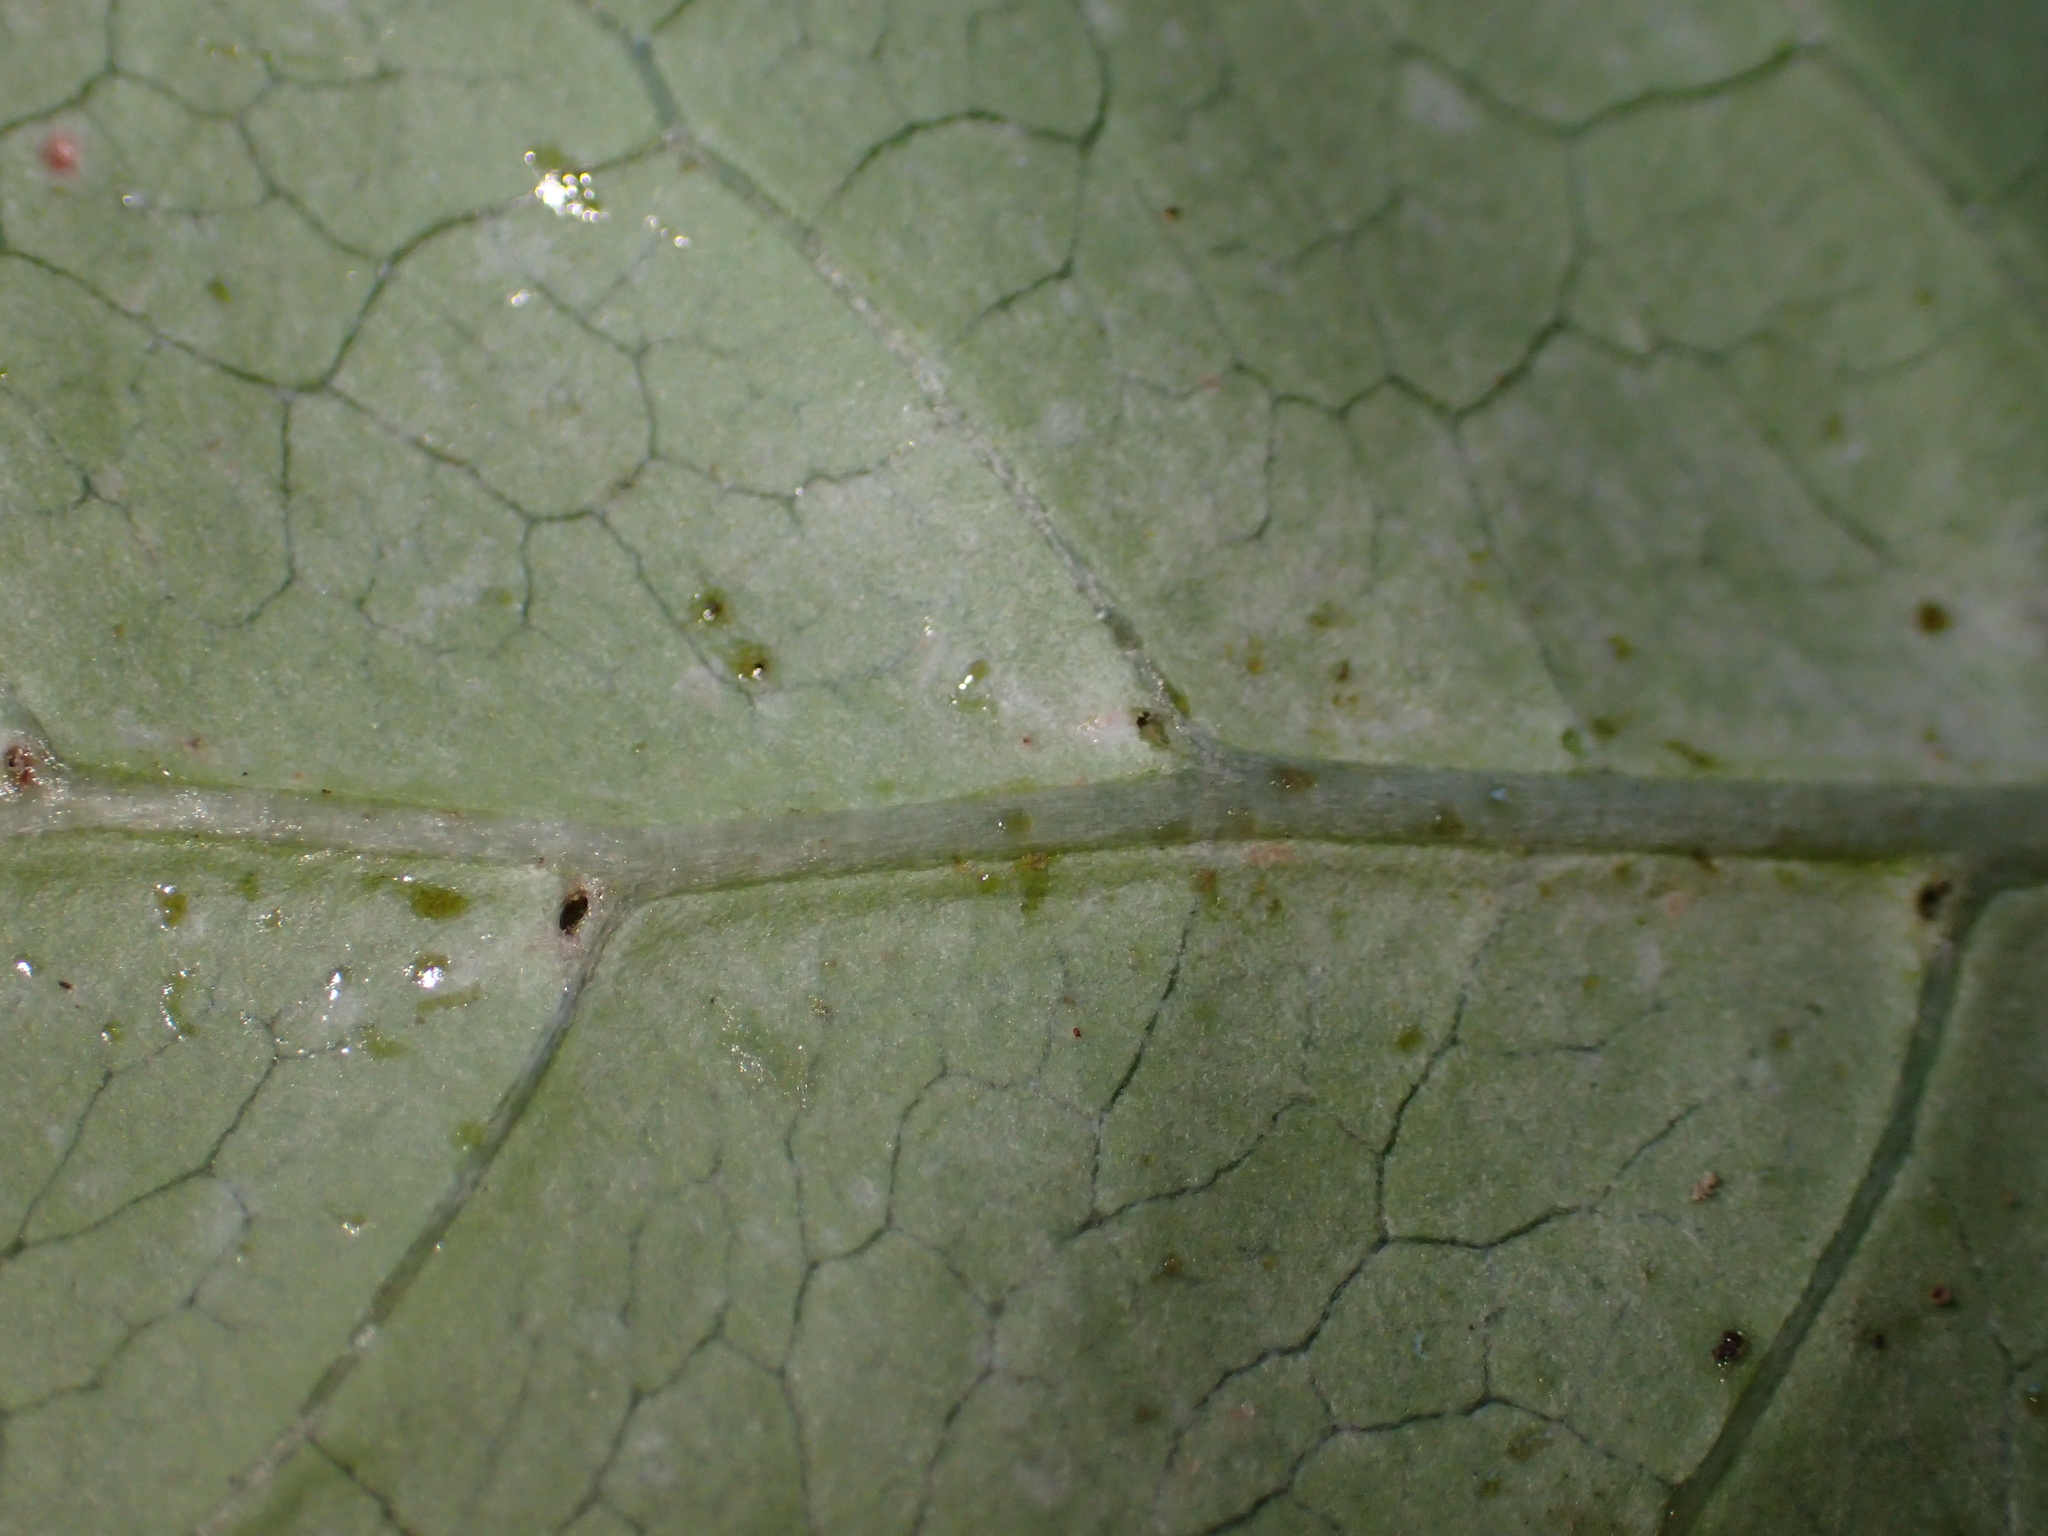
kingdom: Plantae
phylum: Tracheophyta
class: Magnoliopsida
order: Gentianales
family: Rubiaceae
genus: Coprosma
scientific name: Coprosma repens
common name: Tree bedstraw
